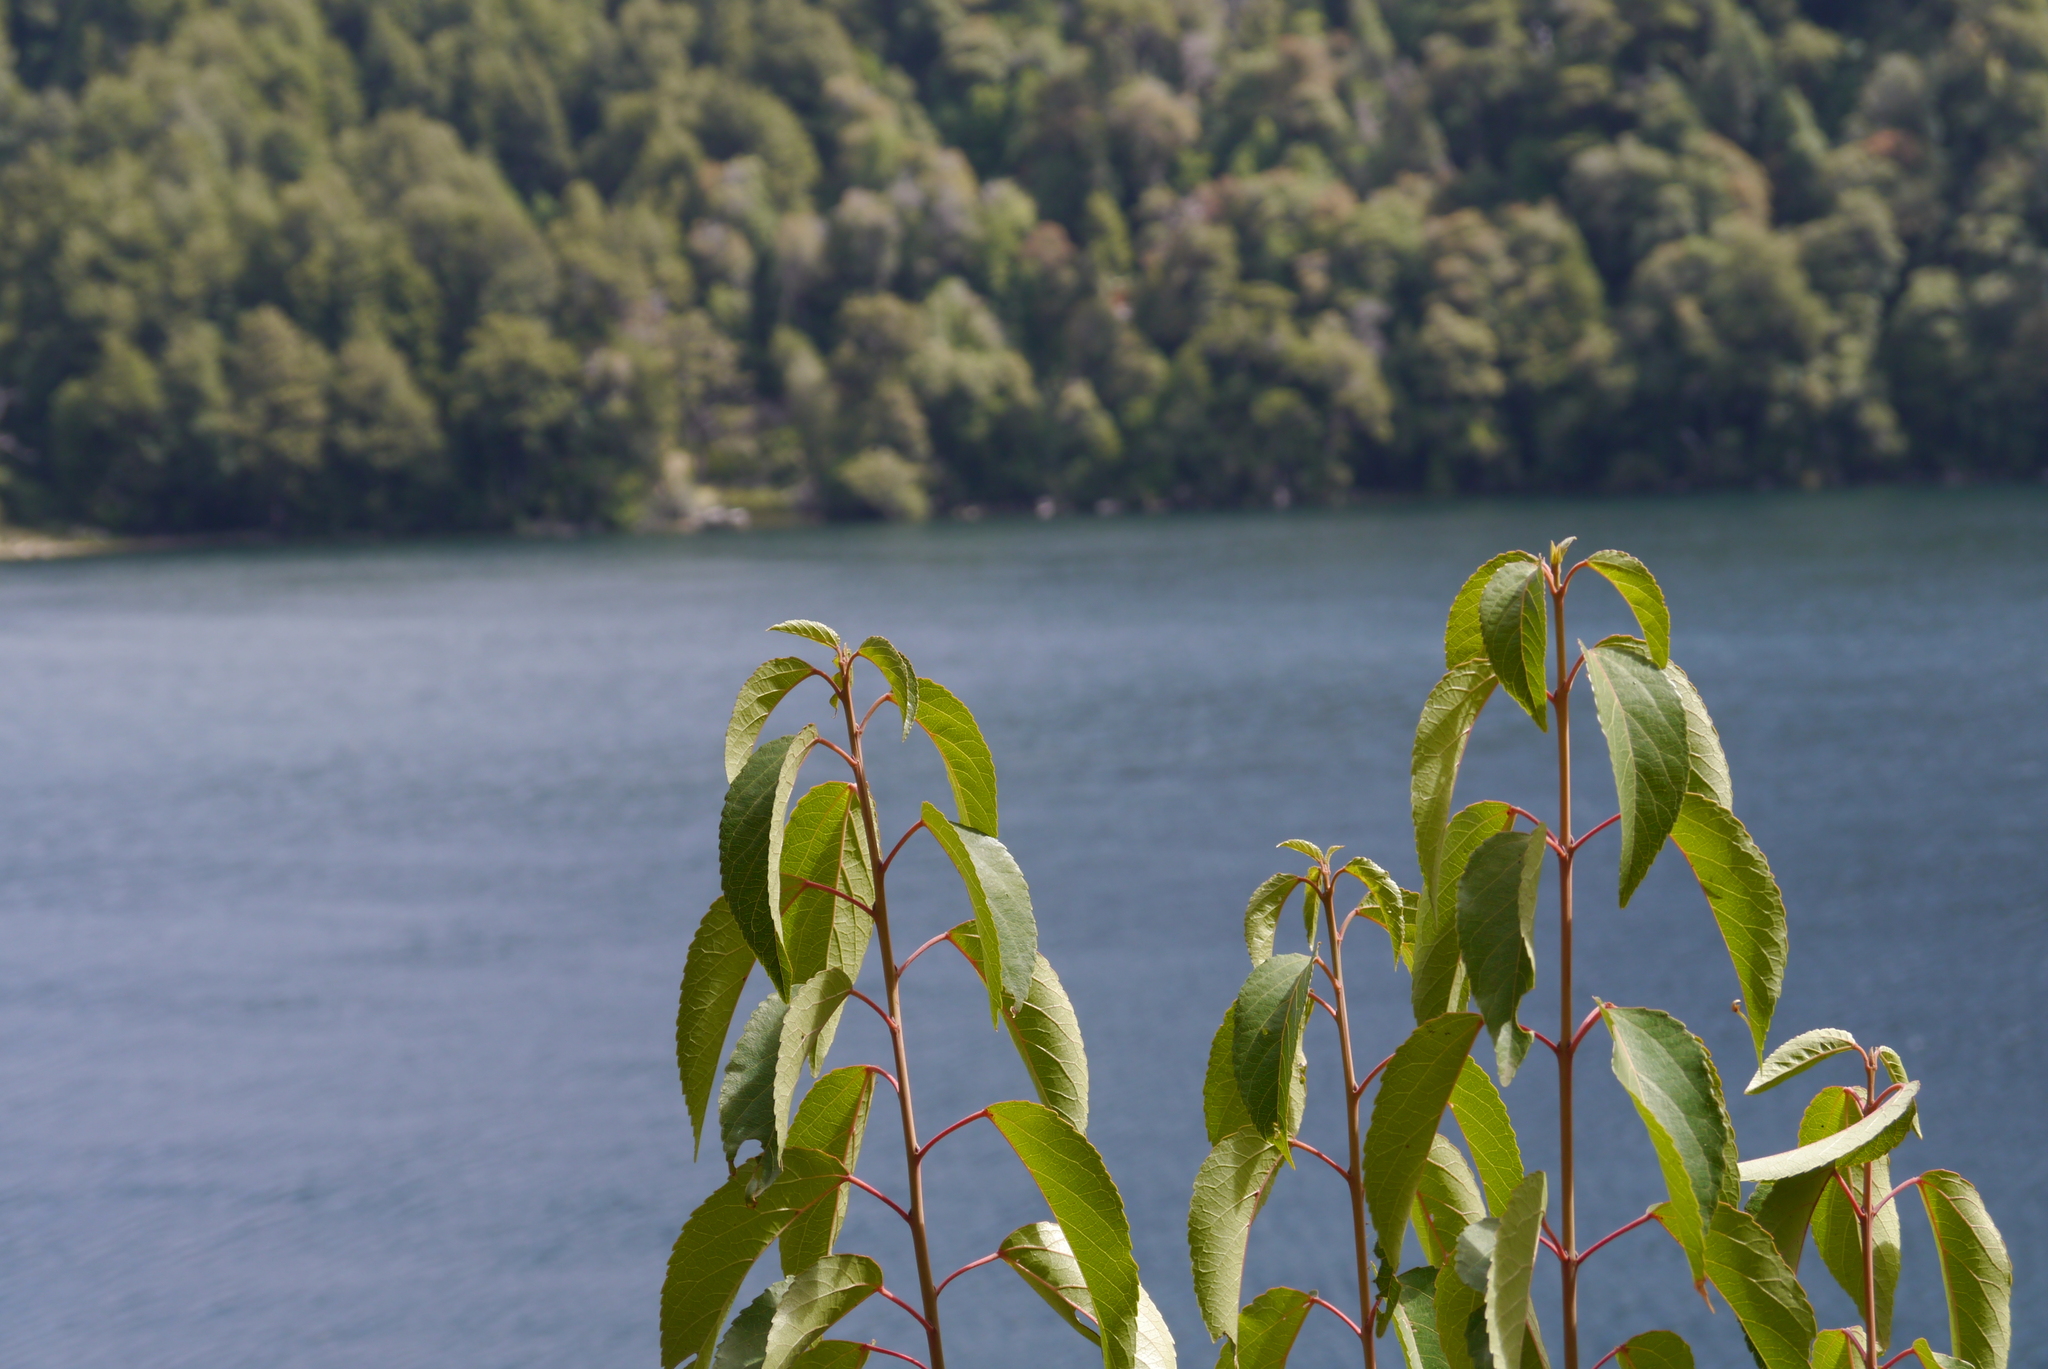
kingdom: Plantae
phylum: Tracheophyta
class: Magnoliopsida
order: Oxalidales
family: Elaeocarpaceae
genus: Aristotelia
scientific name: Aristotelia chilensis
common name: Maquei
